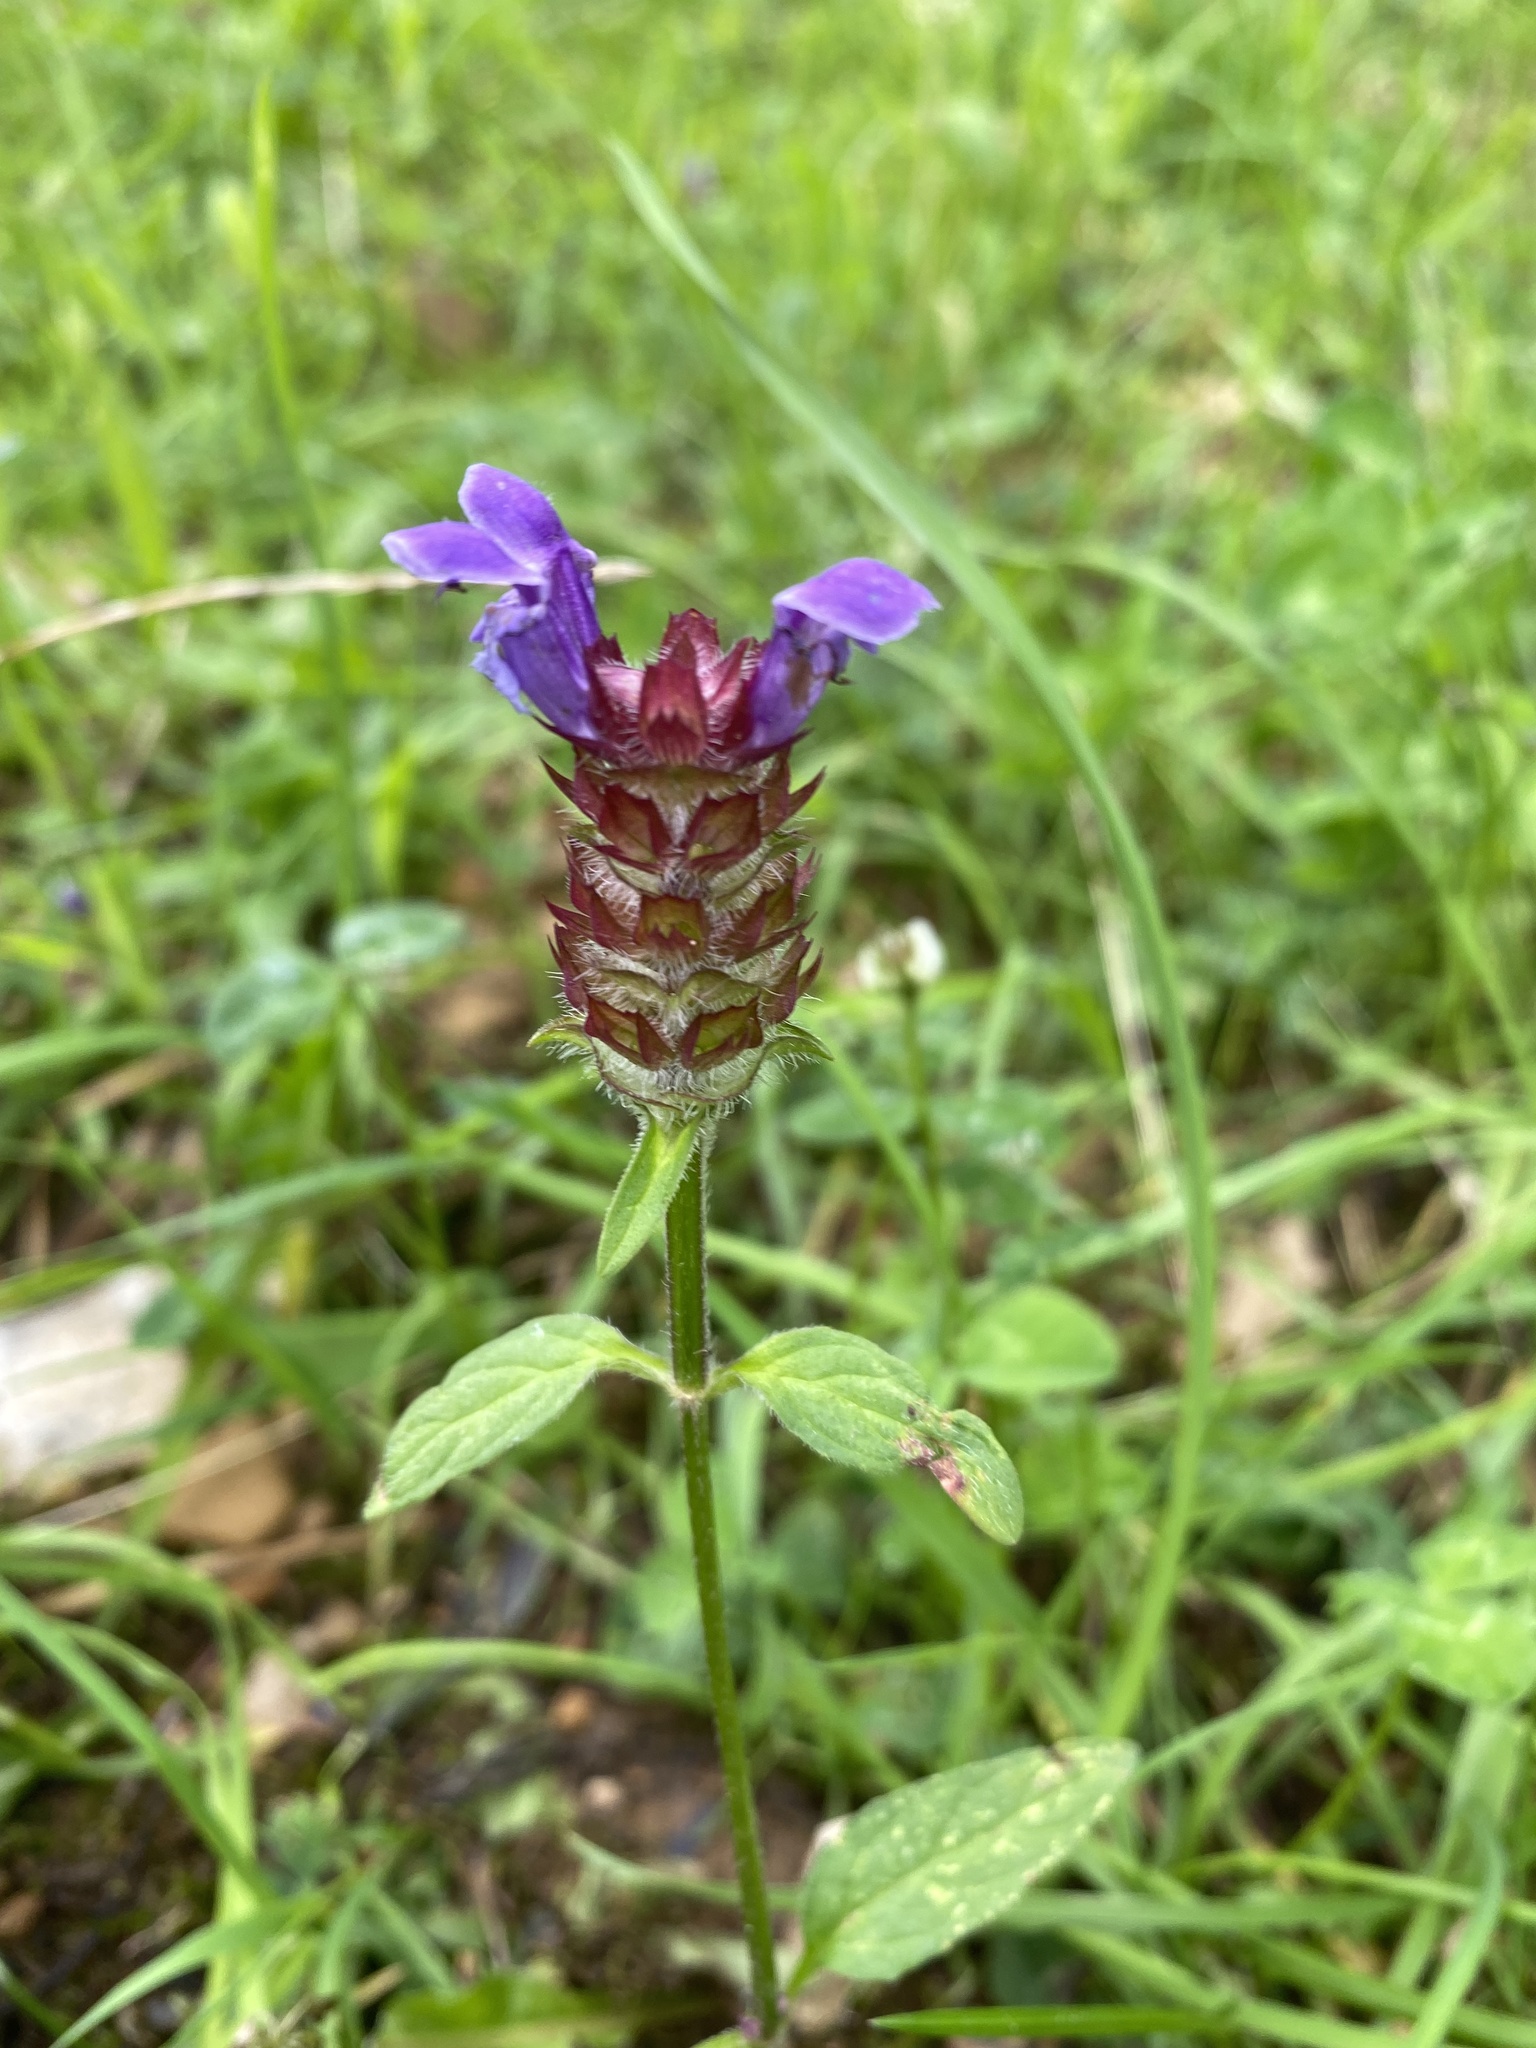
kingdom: Plantae
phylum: Tracheophyta
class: Magnoliopsida
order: Lamiales
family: Lamiaceae
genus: Prunella
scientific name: Prunella vulgaris
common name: Heal-all
